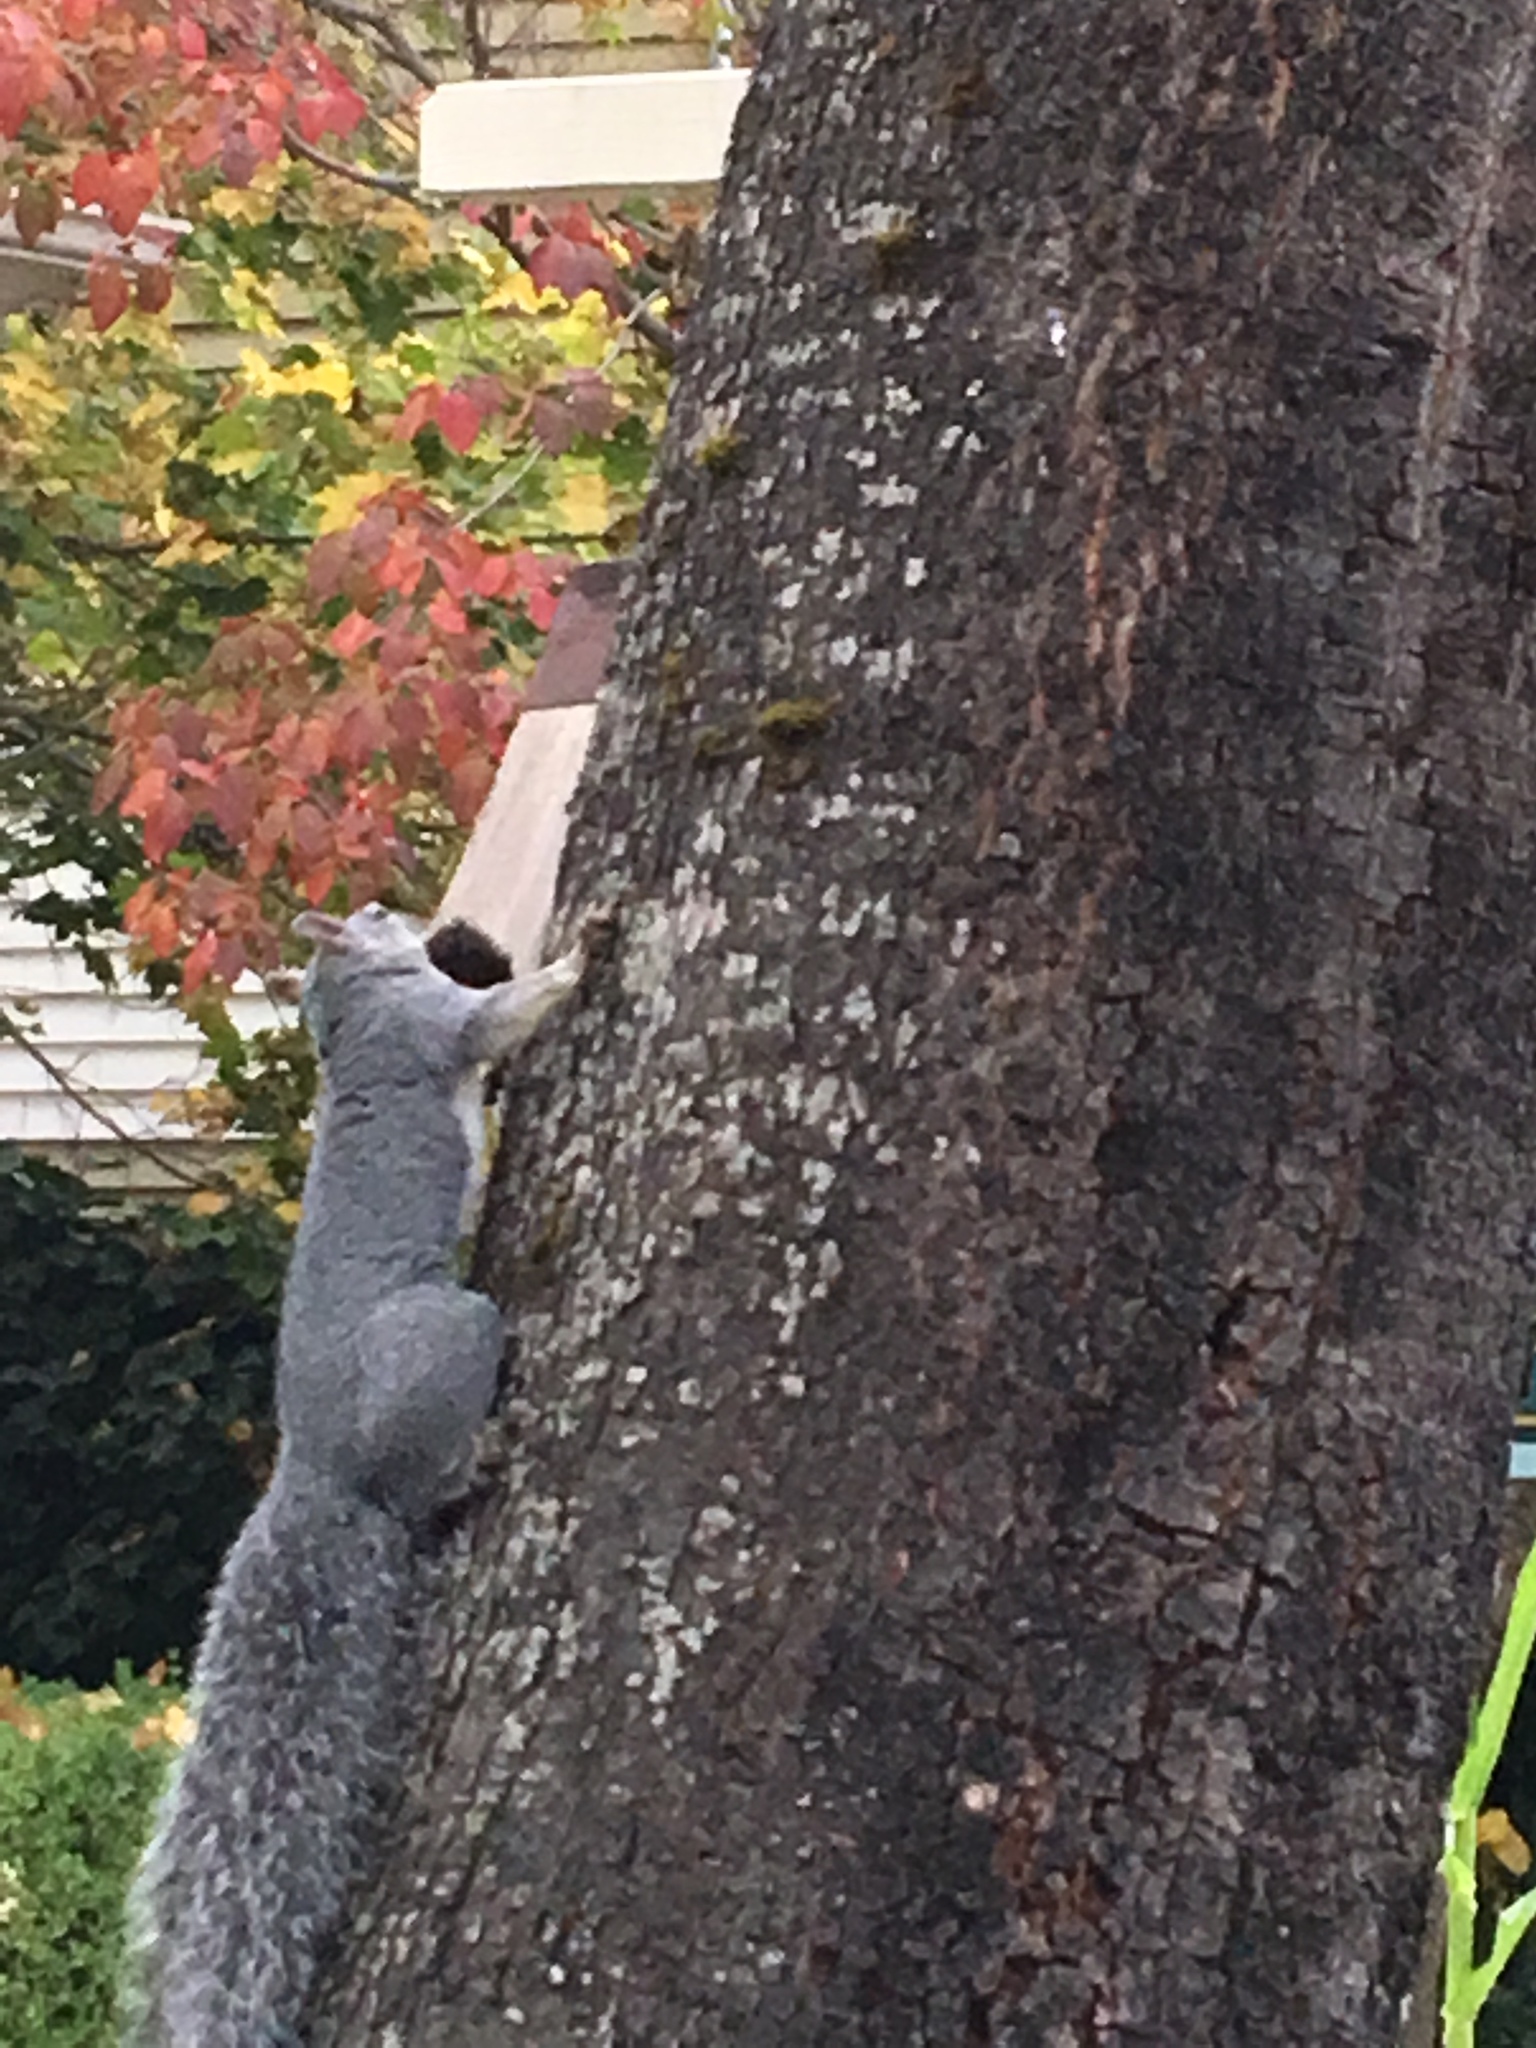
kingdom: Animalia
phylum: Chordata
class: Mammalia
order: Rodentia
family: Sciuridae
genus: Sciurus
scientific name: Sciurus griseus
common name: Western gray squirrel
